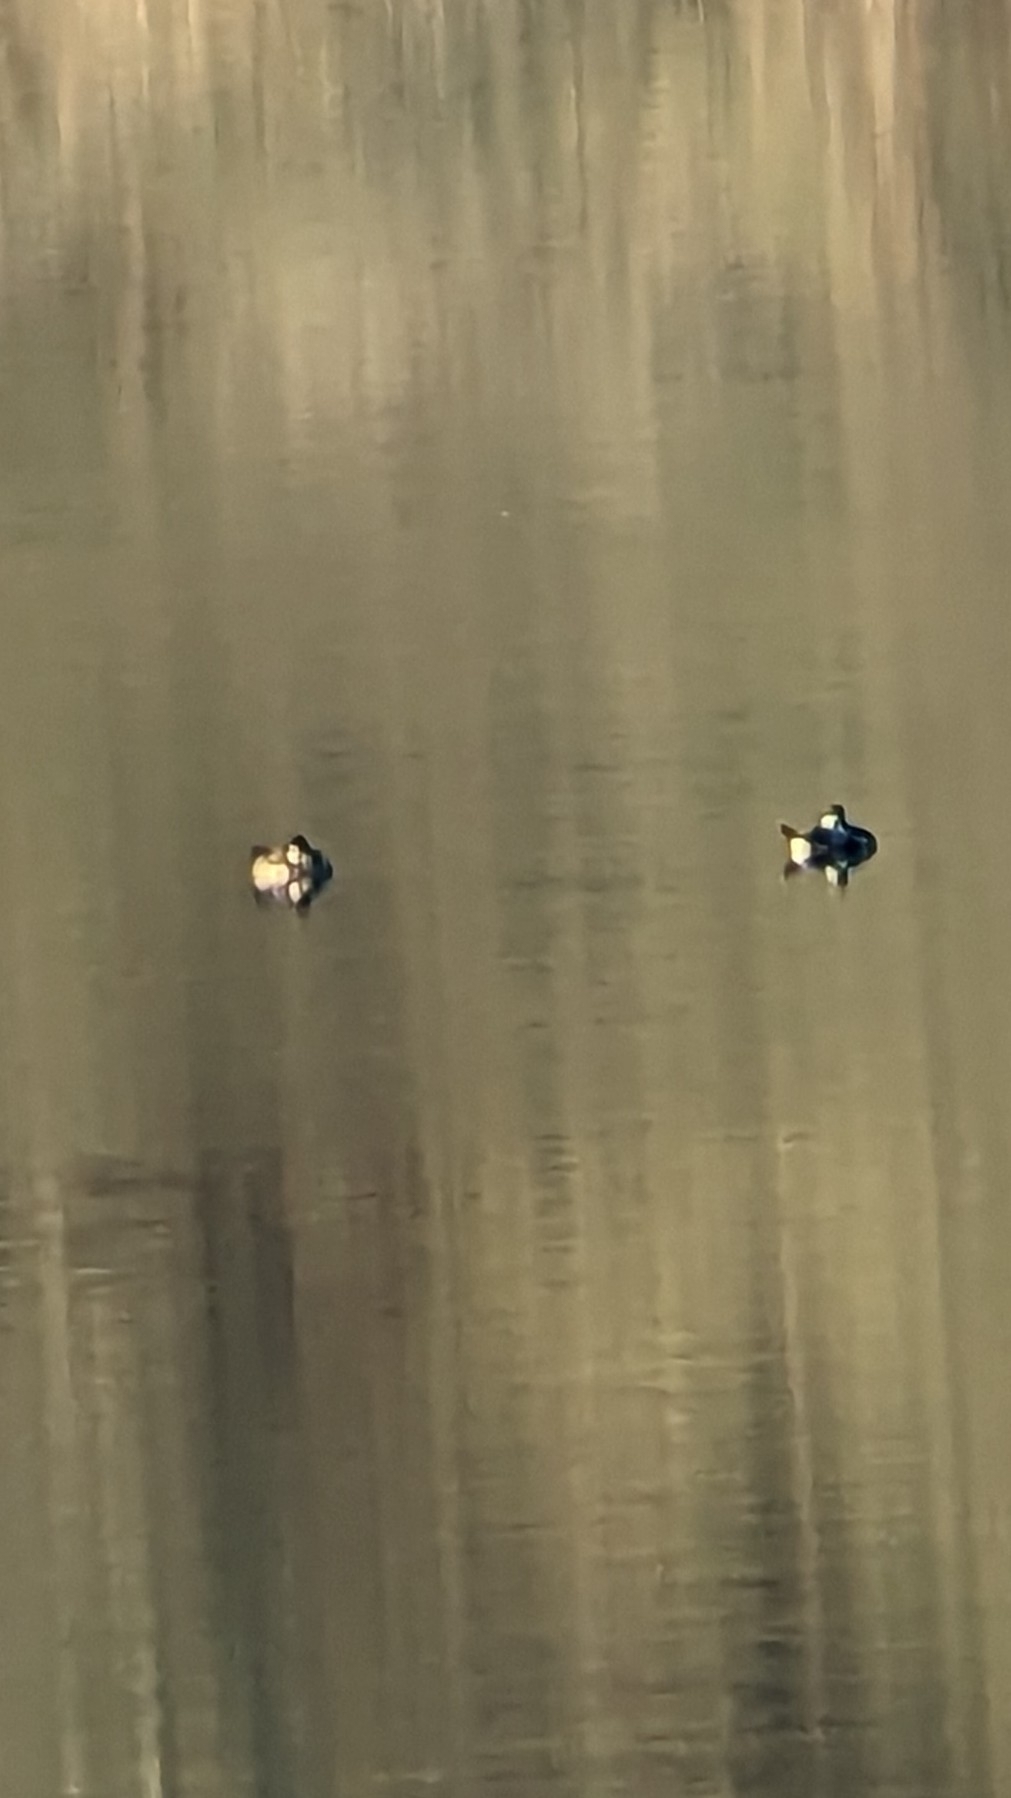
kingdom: Animalia
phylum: Chordata
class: Aves
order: Anseriformes
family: Anatidae
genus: Oxyura
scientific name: Oxyura jamaicensis
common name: Ruddy duck
